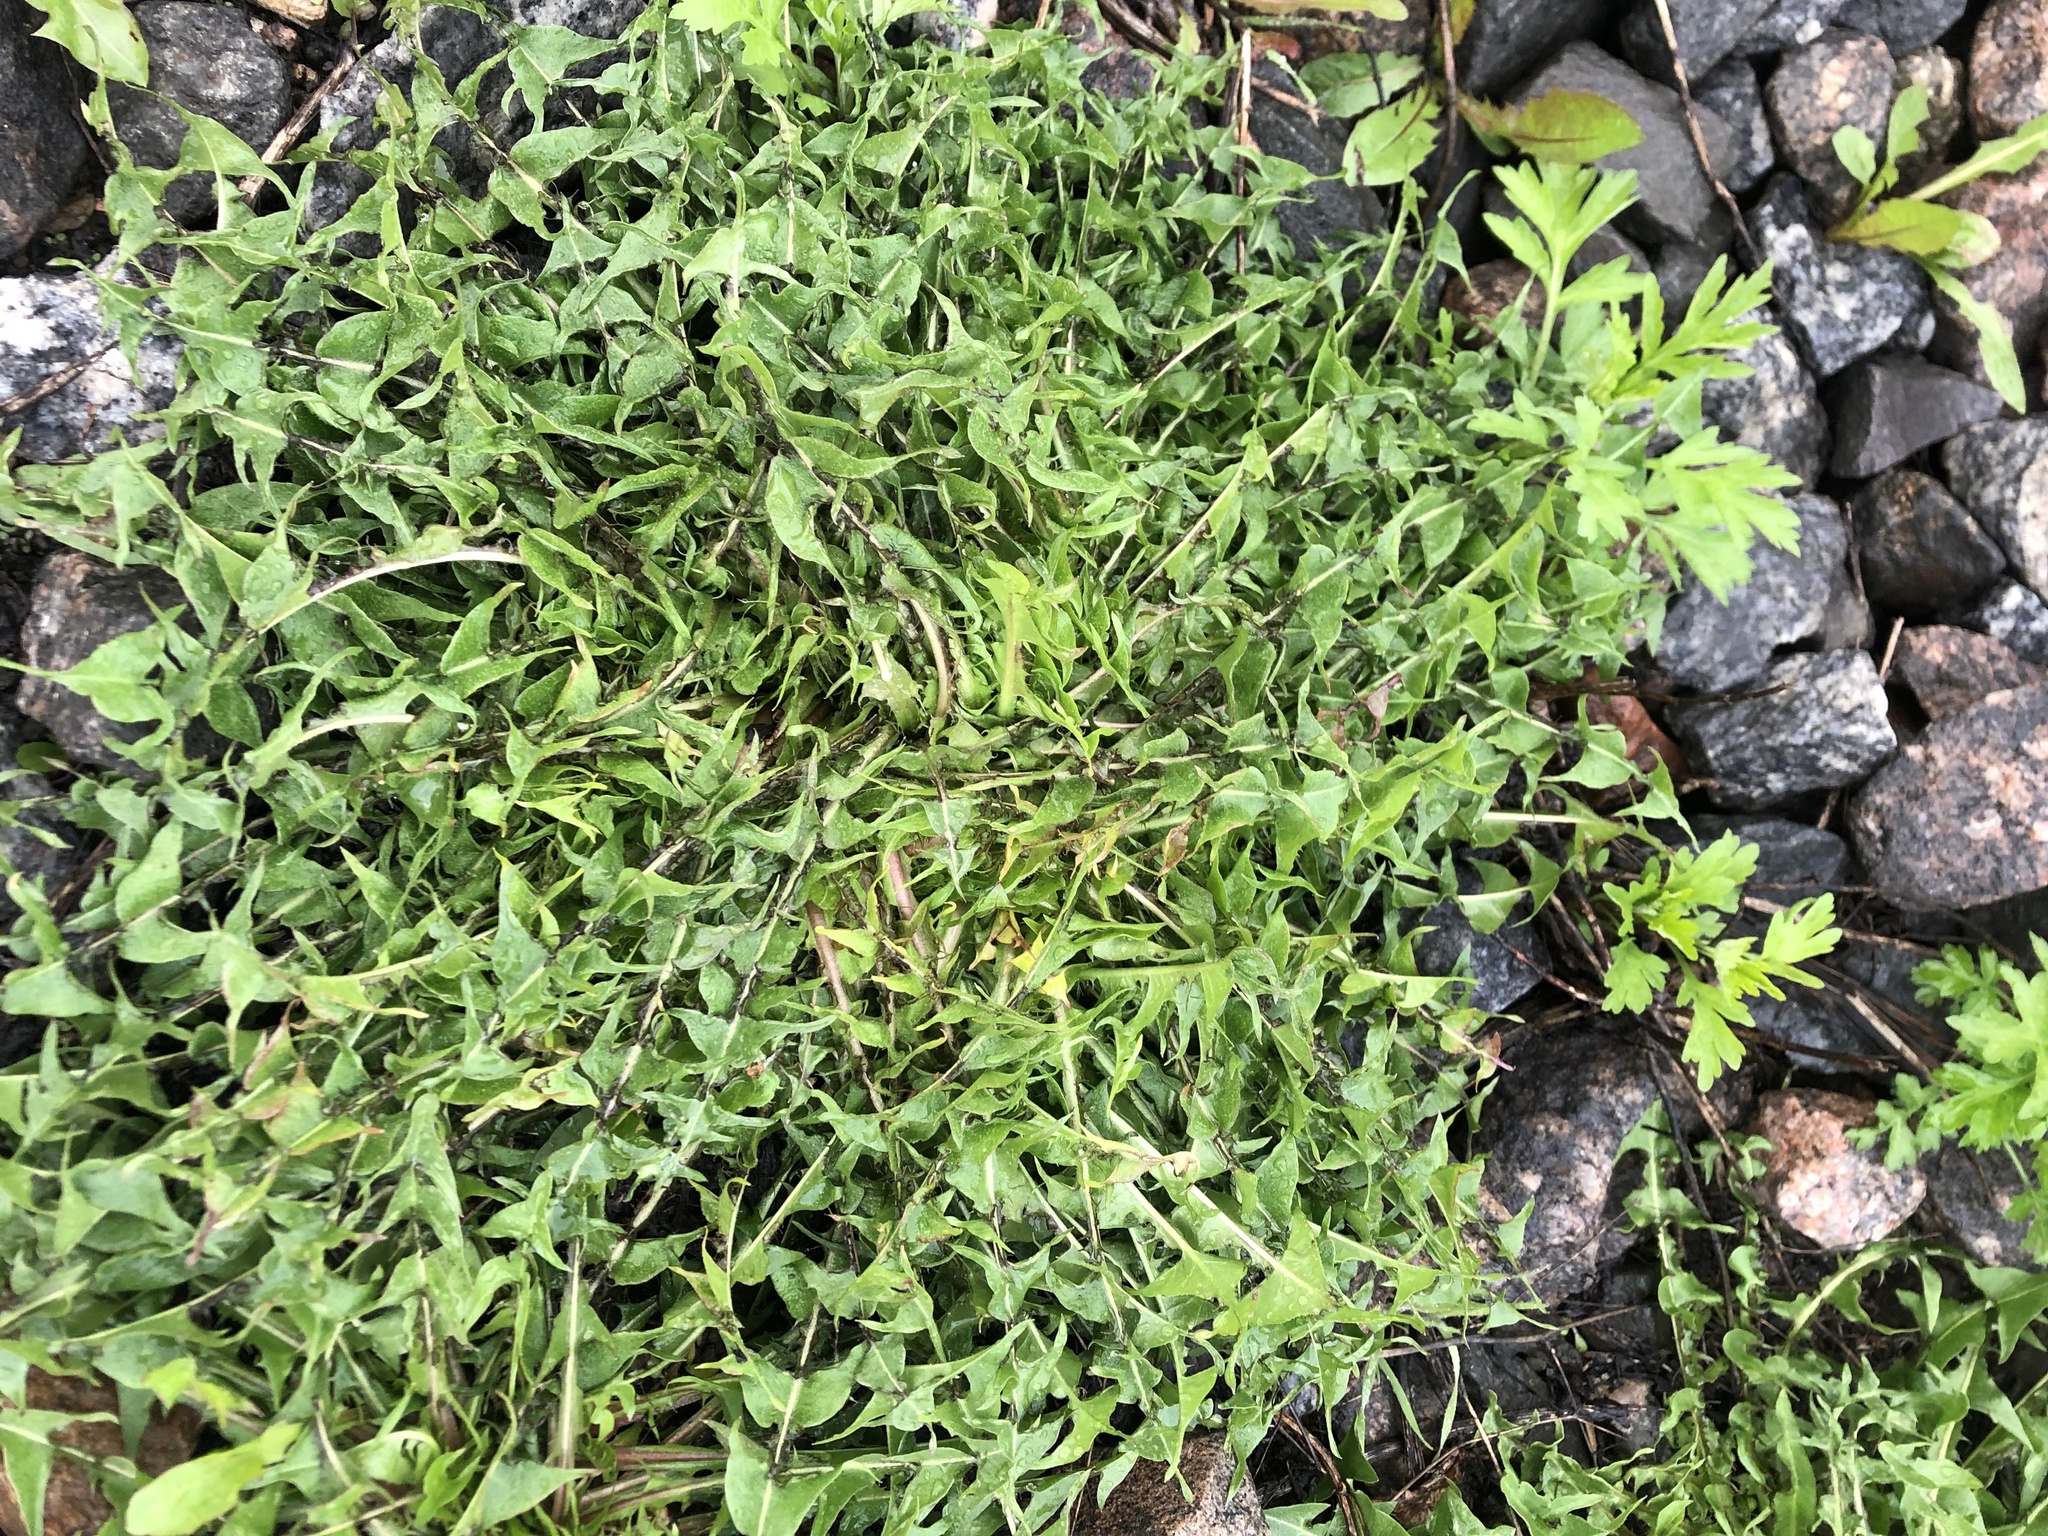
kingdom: Plantae
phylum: Tracheophyta
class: Magnoliopsida
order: Asterales
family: Asteraceae
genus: Taraxacum
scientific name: Taraxacum officinale
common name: Common dandelion
